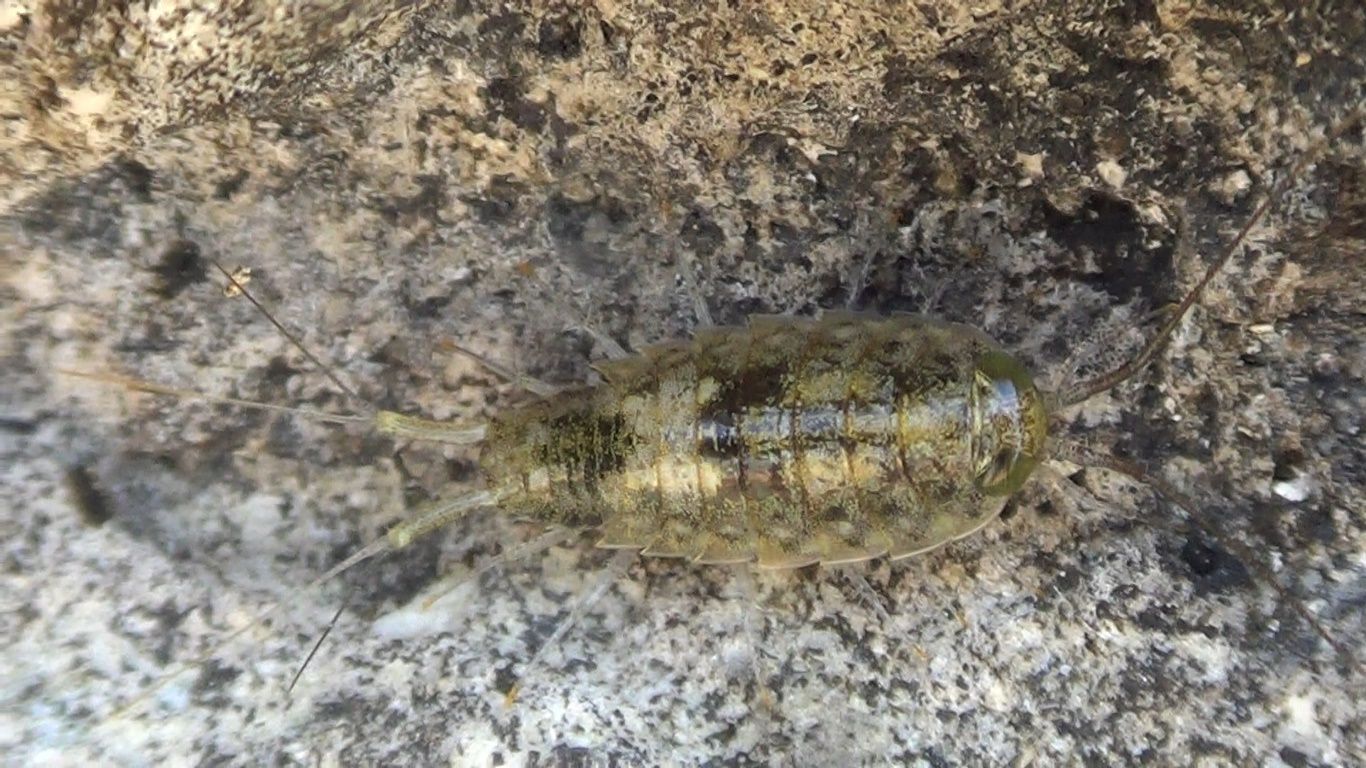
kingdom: Animalia
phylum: Arthropoda
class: Malacostraca
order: Isopoda
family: Ligiidae
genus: Ligia
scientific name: Ligia italica
